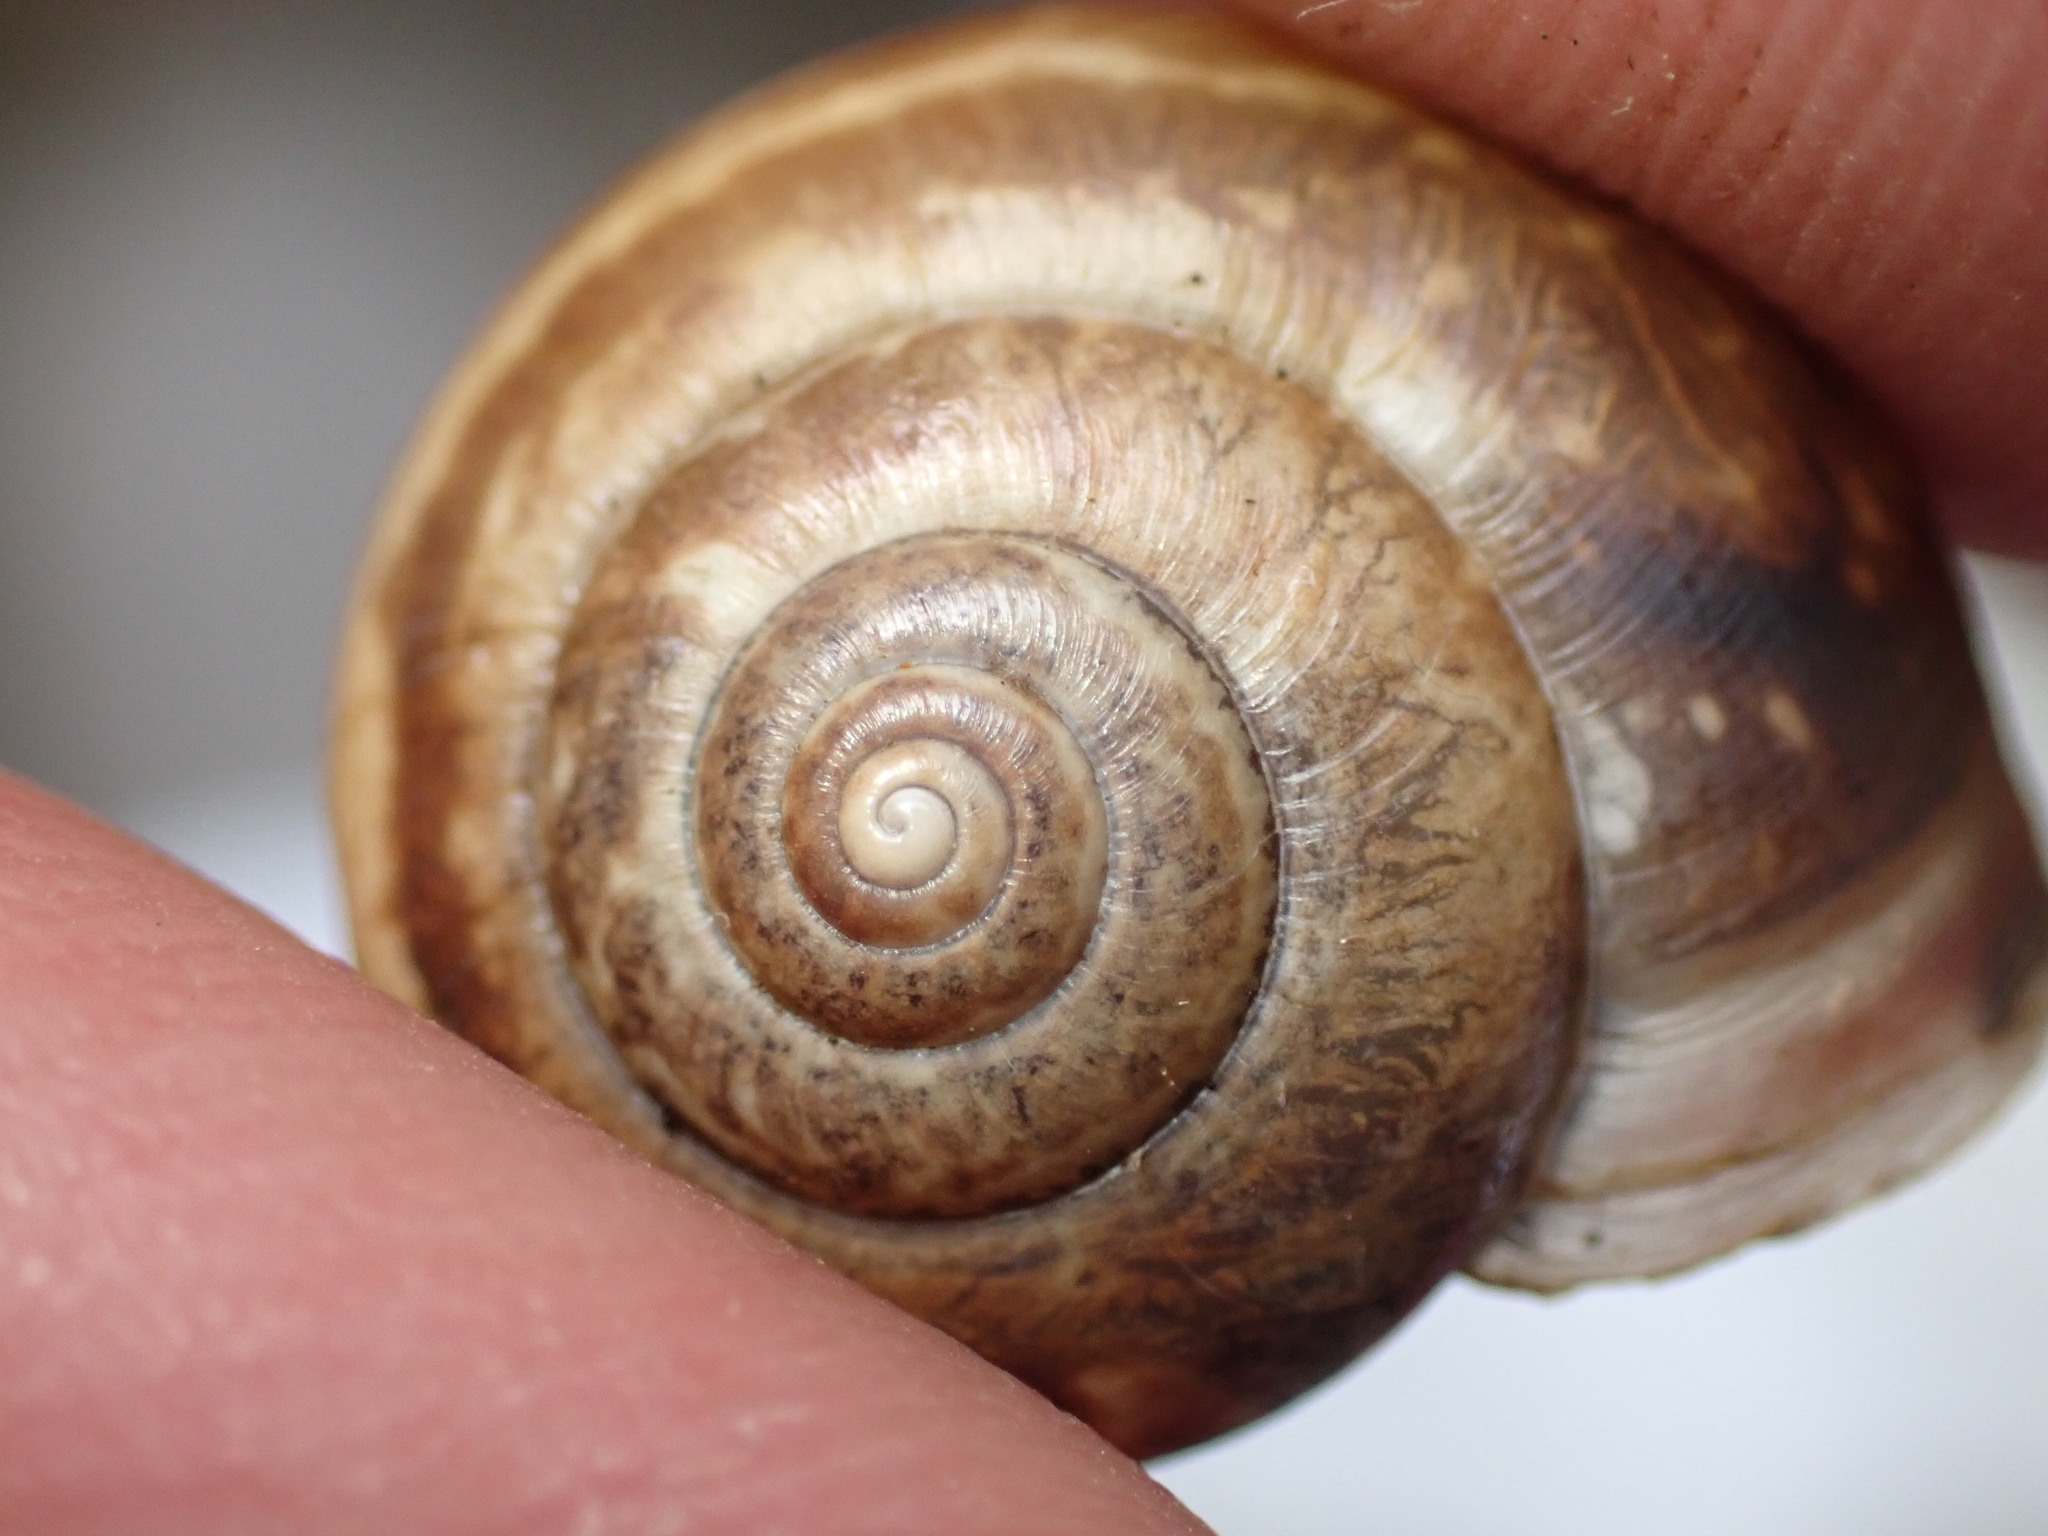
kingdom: Animalia
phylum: Mollusca
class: Gastropoda
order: Stylommatophora
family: Hygromiidae
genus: Monacha
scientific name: Monacha cantiana
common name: Kentish snail
